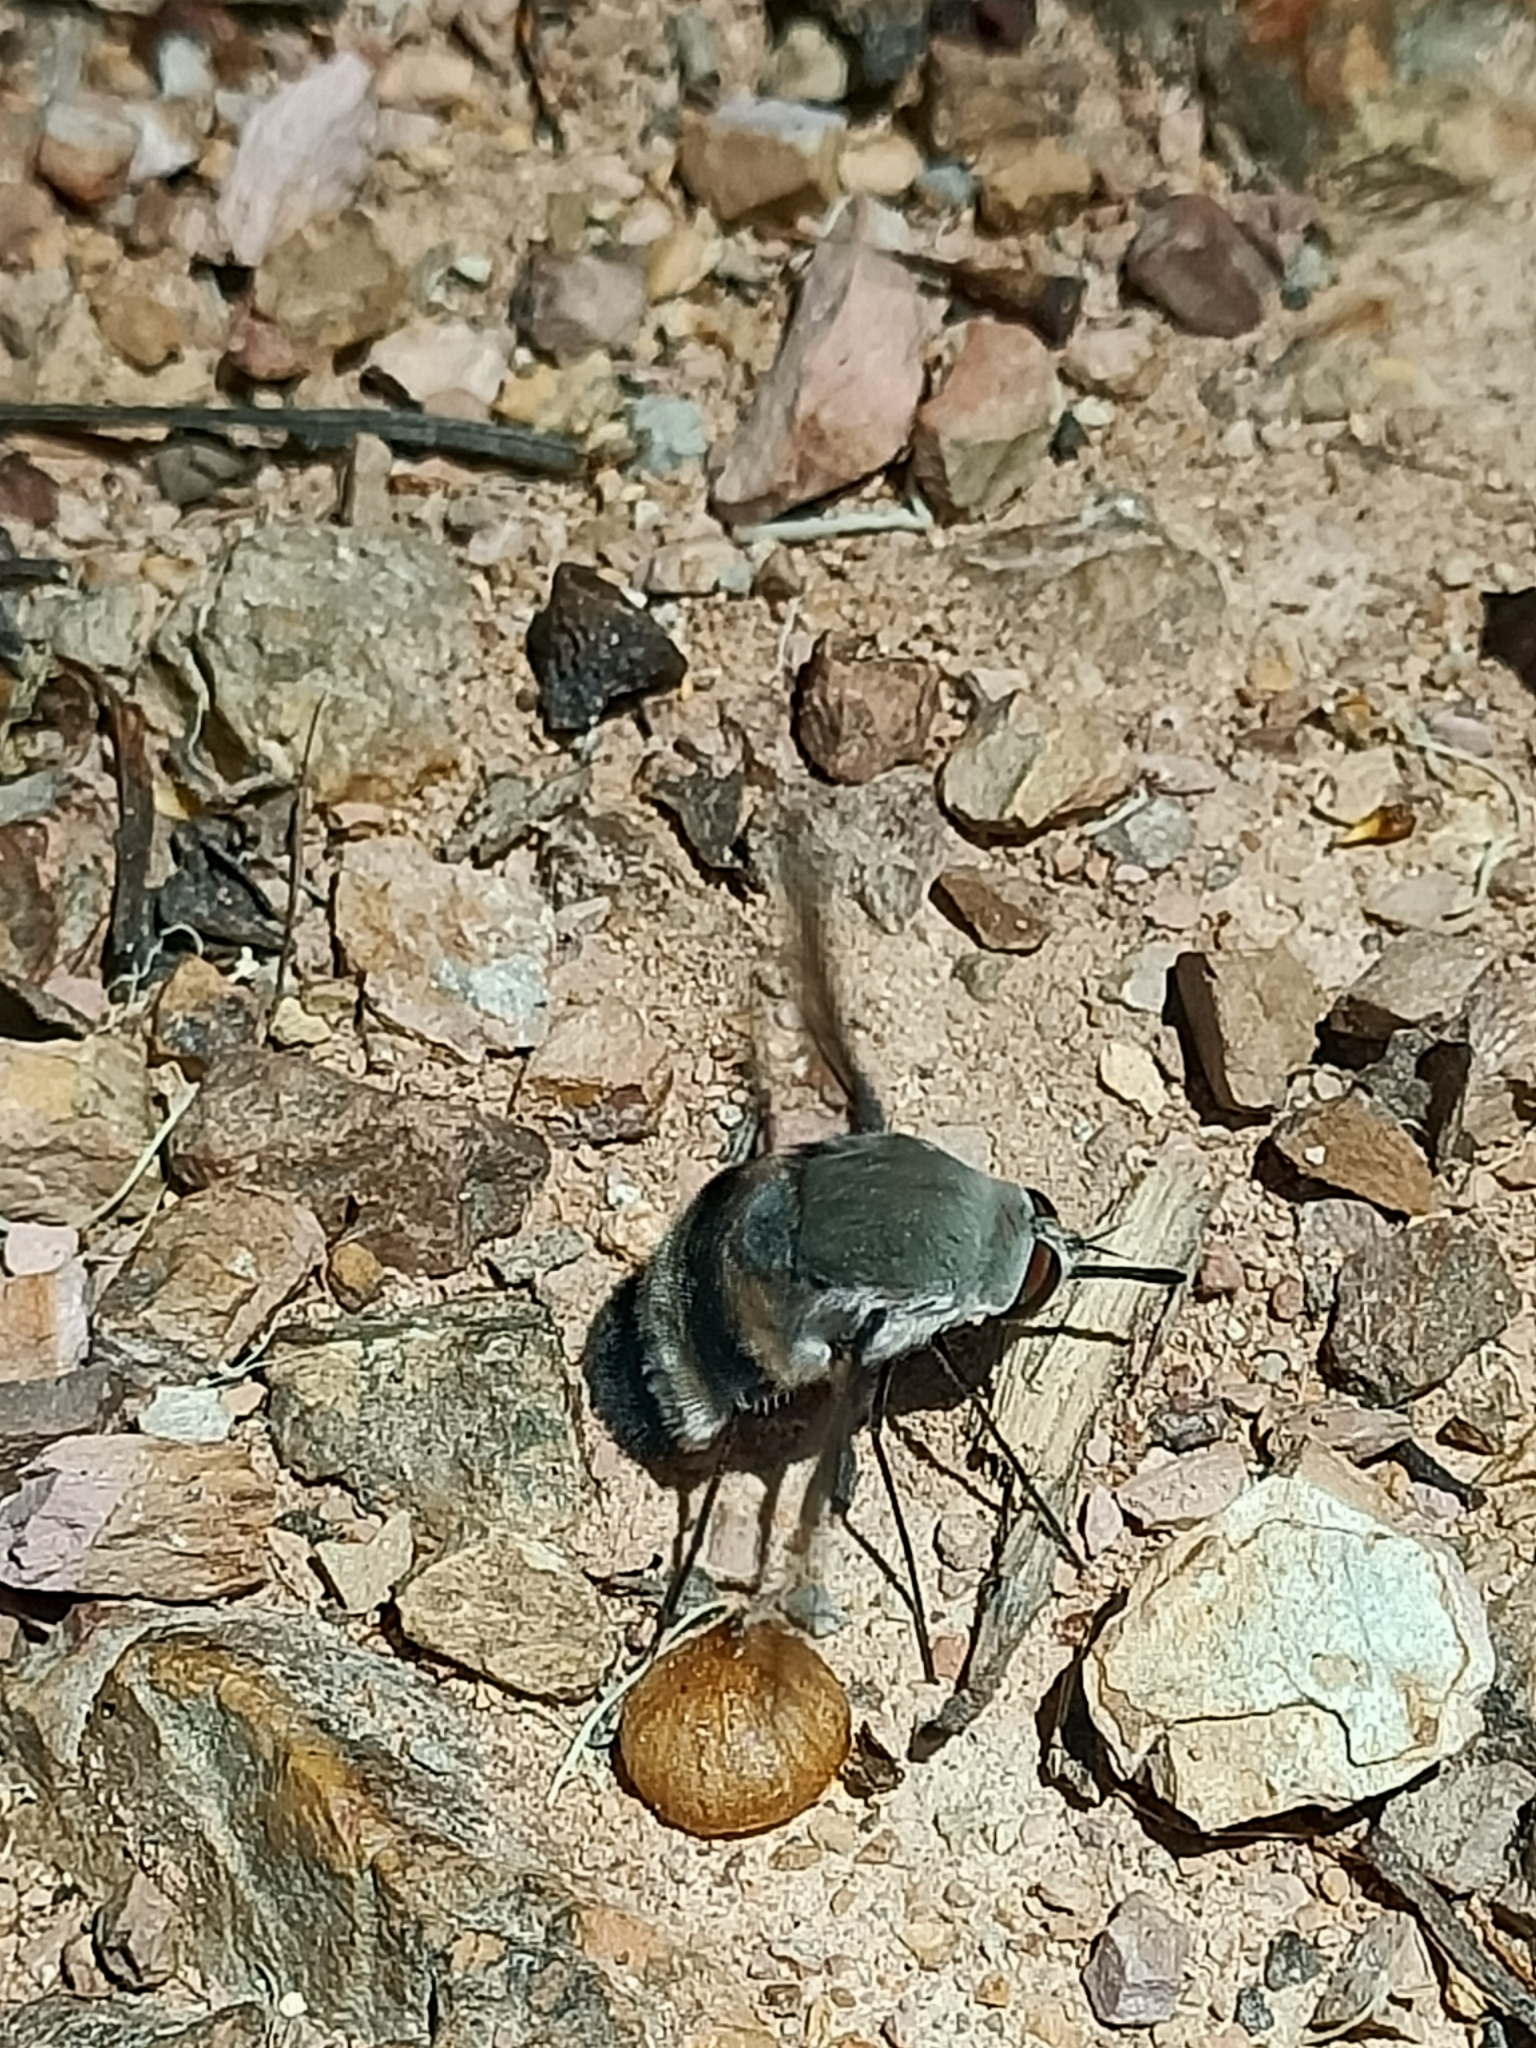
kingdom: Animalia
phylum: Arthropoda
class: Insecta
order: Diptera
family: Bombyliidae
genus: Meomyia
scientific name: Meomyia
